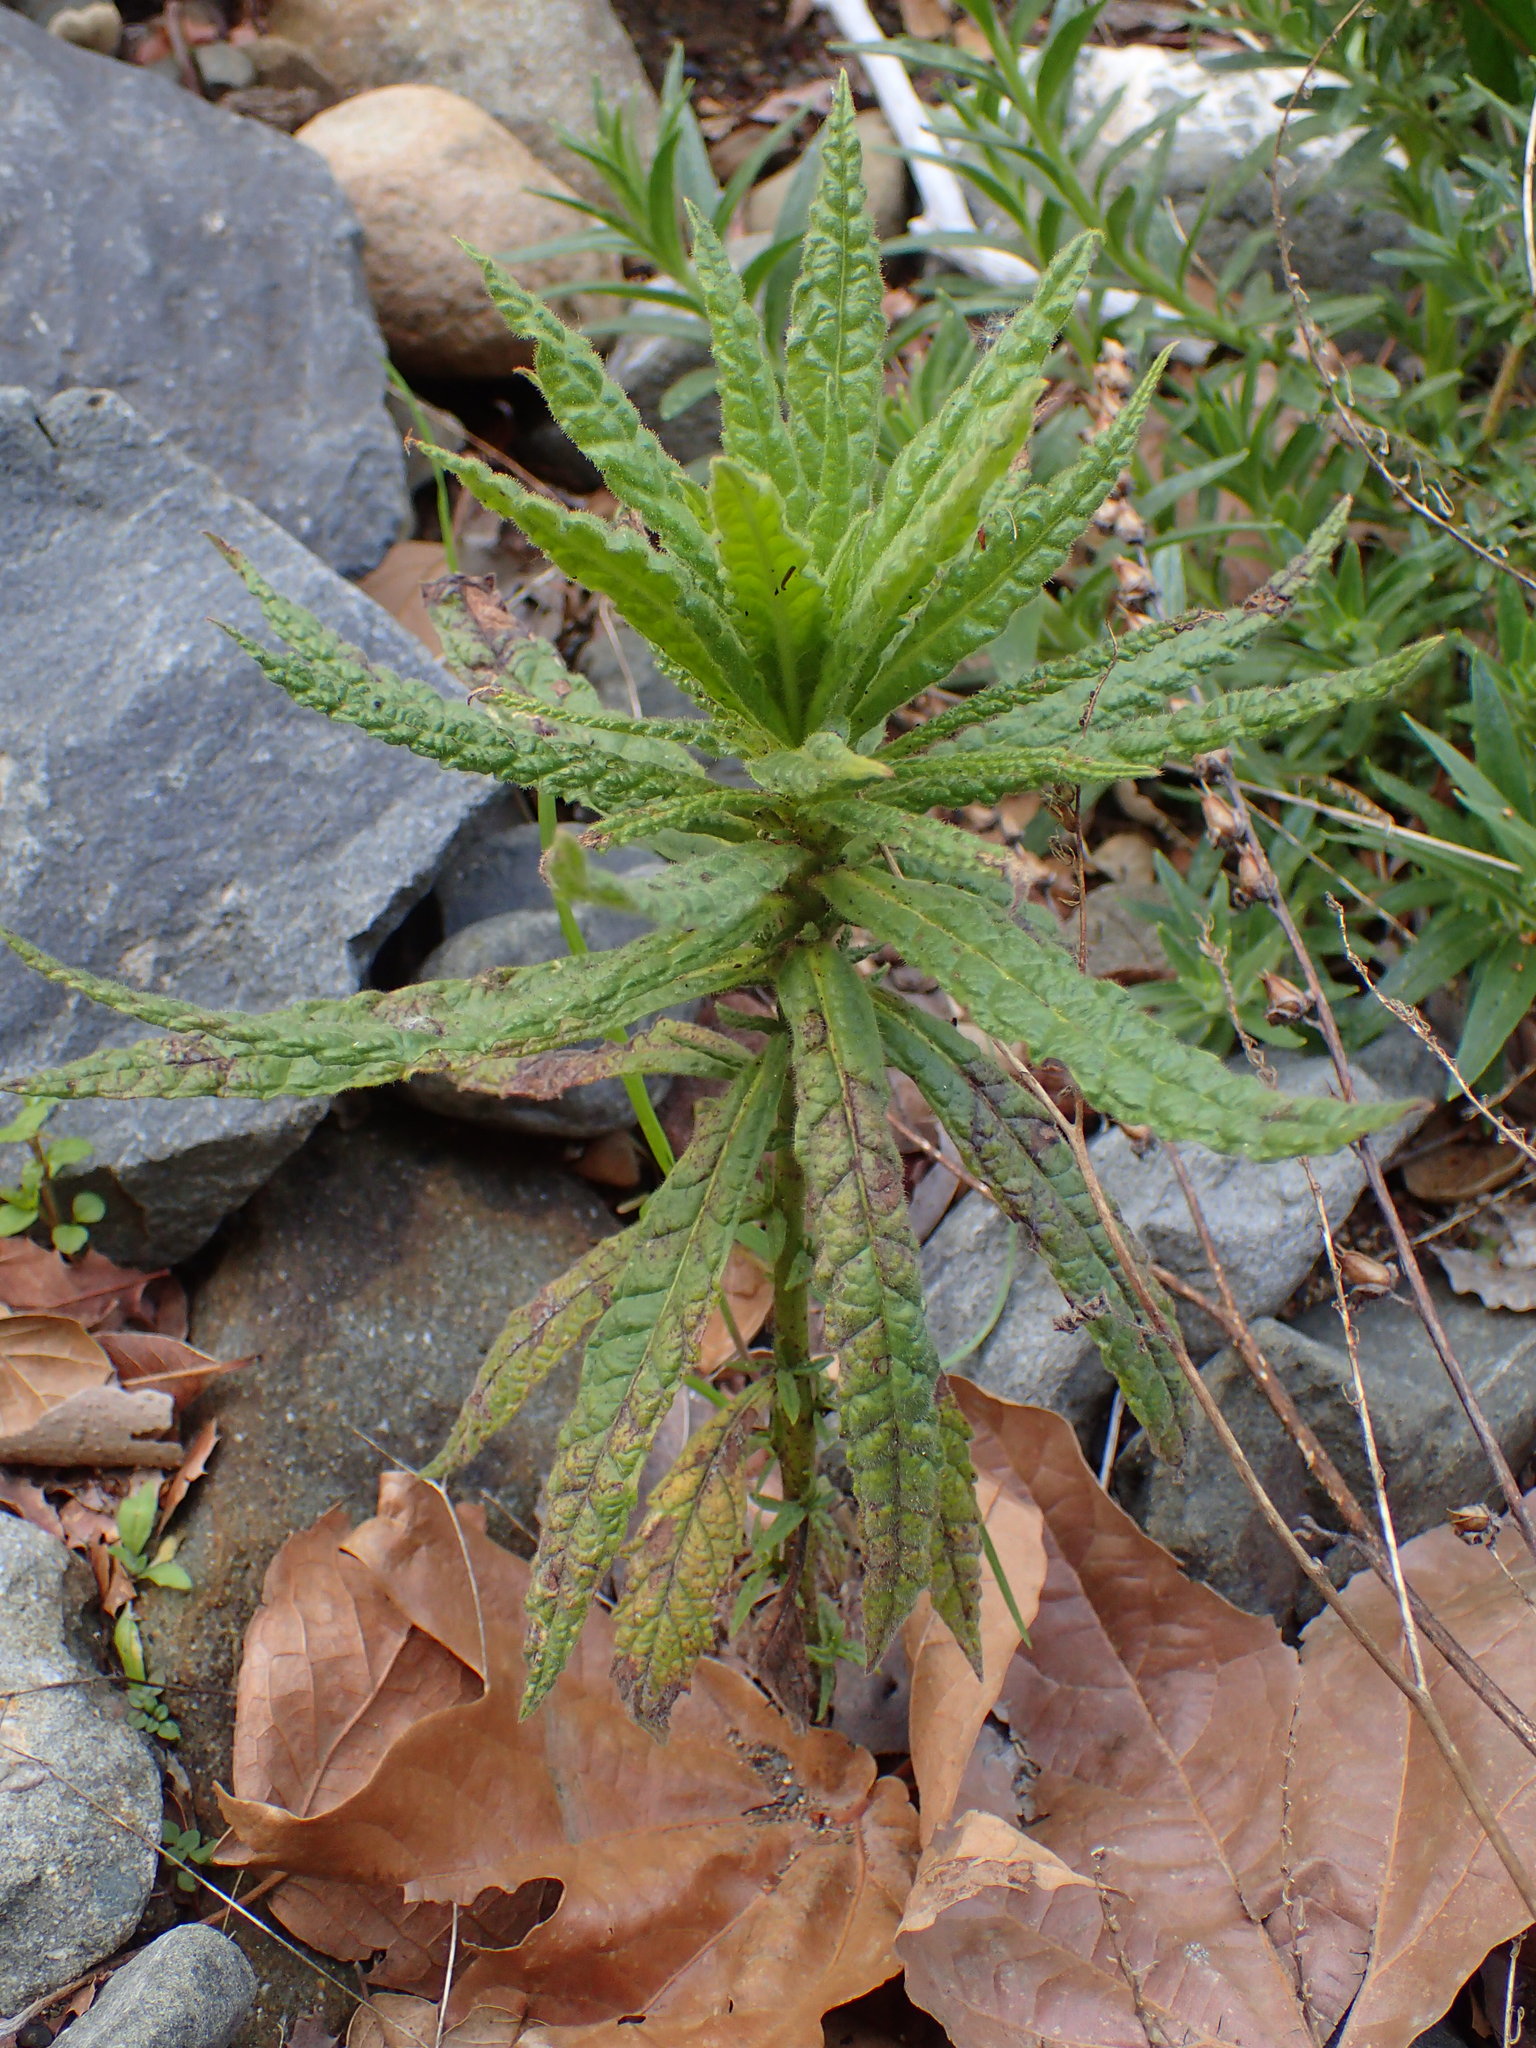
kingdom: Plantae
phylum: Tracheophyta
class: Magnoliopsida
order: Boraginales
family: Namaceae
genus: Turricula
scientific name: Turricula parryi
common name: Poodle-dog-bush
